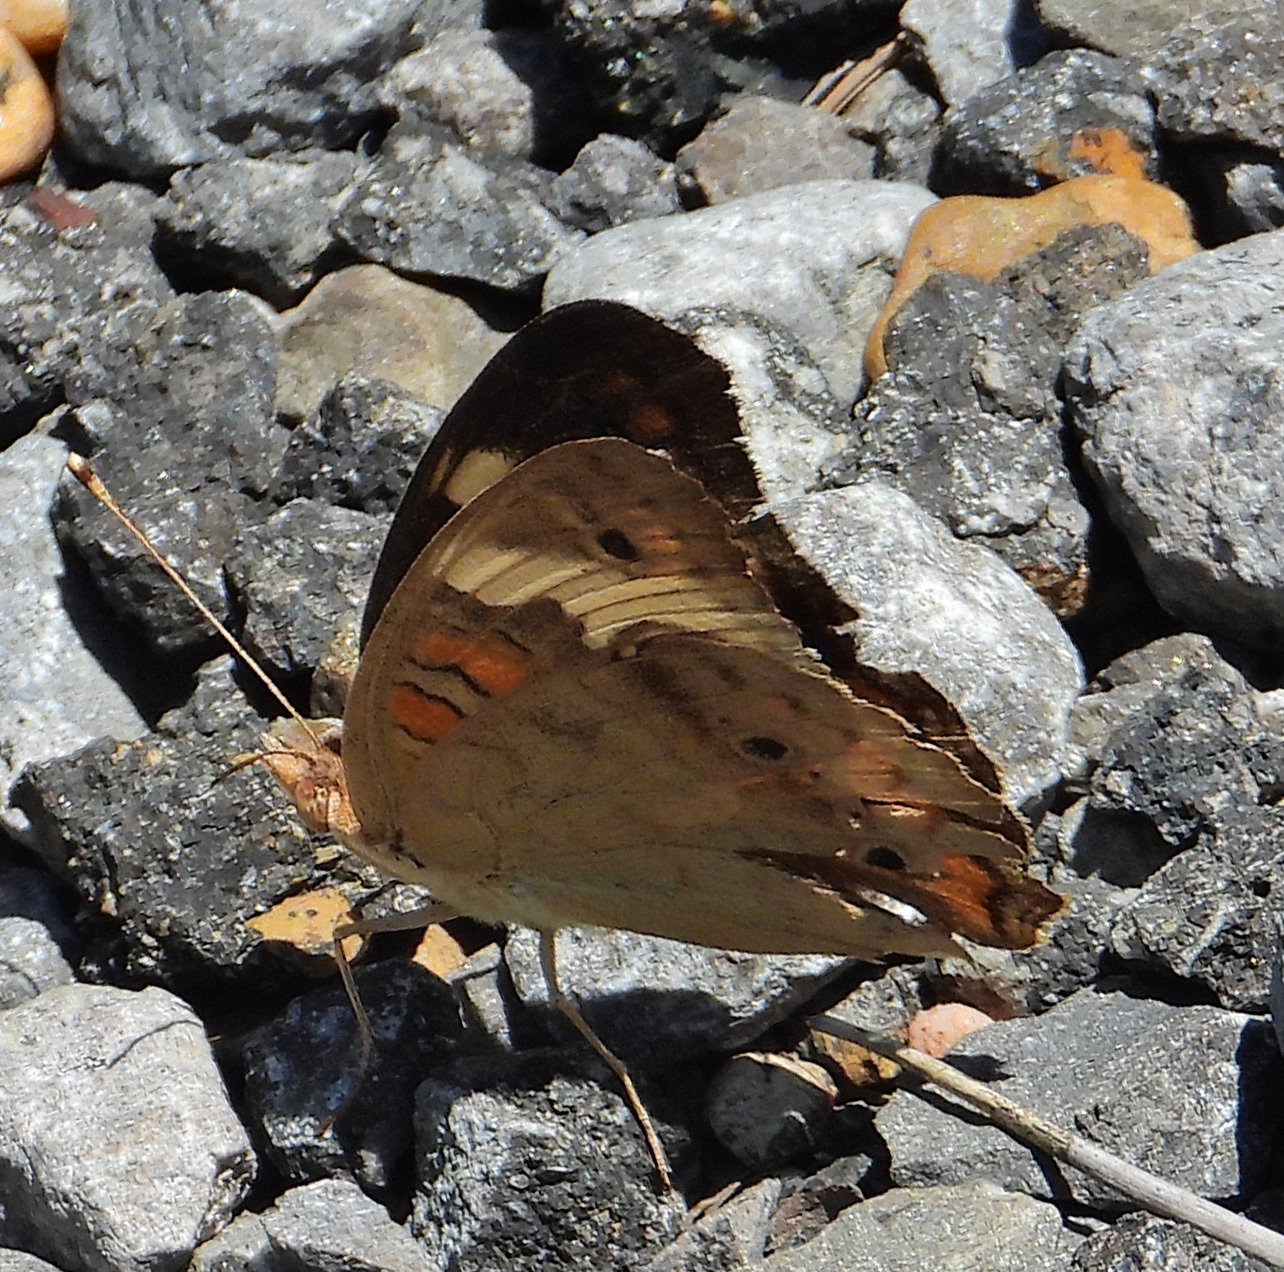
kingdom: Animalia
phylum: Arthropoda
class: Insecta
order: Lepidoptera
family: Nymphalidae
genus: Junonia
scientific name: Junonia coenia
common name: Common buckeye
